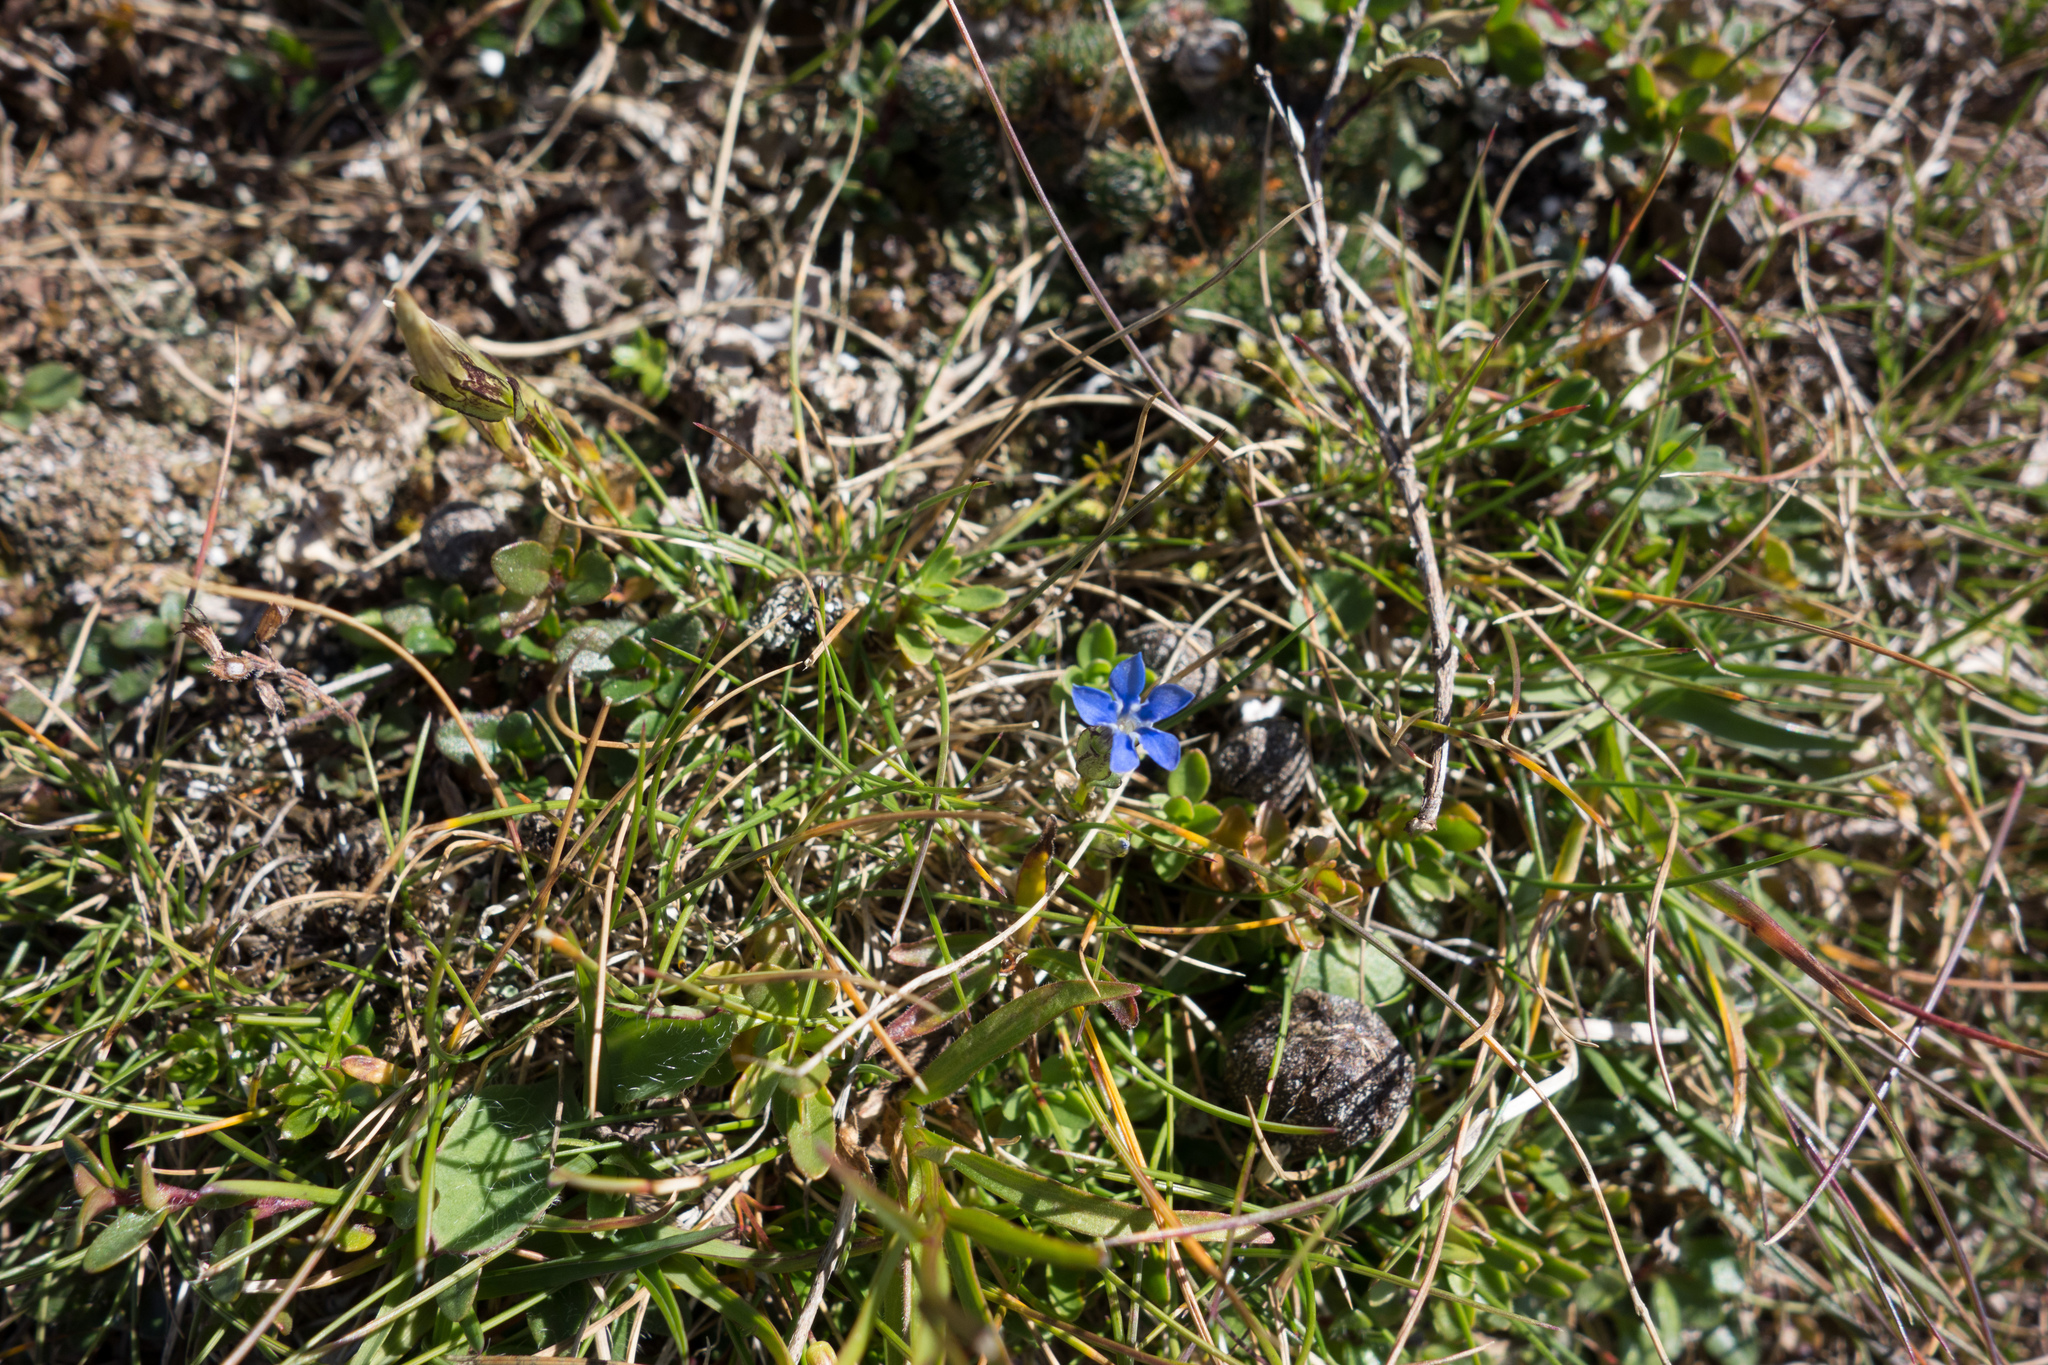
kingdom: Plantae
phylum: Tracheophyta
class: Magnoliopsida
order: Gentianales
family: Gentianaceae
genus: Gentiana
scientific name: Gentiana nivalis
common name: Alpine gentian
